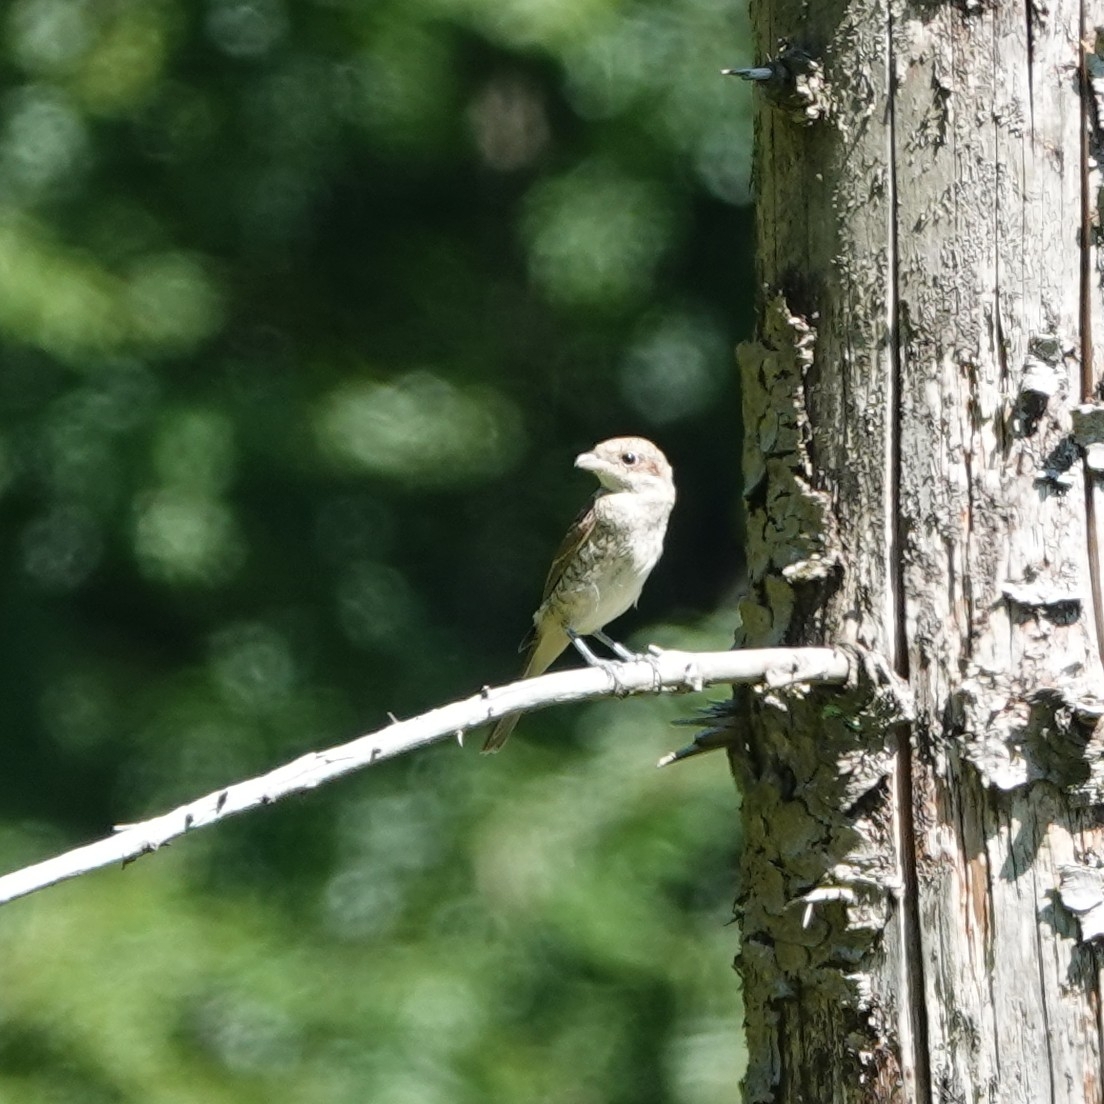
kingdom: Animalia
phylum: Chordata
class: Aves
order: Passeriformes
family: Laniidae
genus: Lanius
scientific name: Lanius collurio
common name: Red-backed shrike
